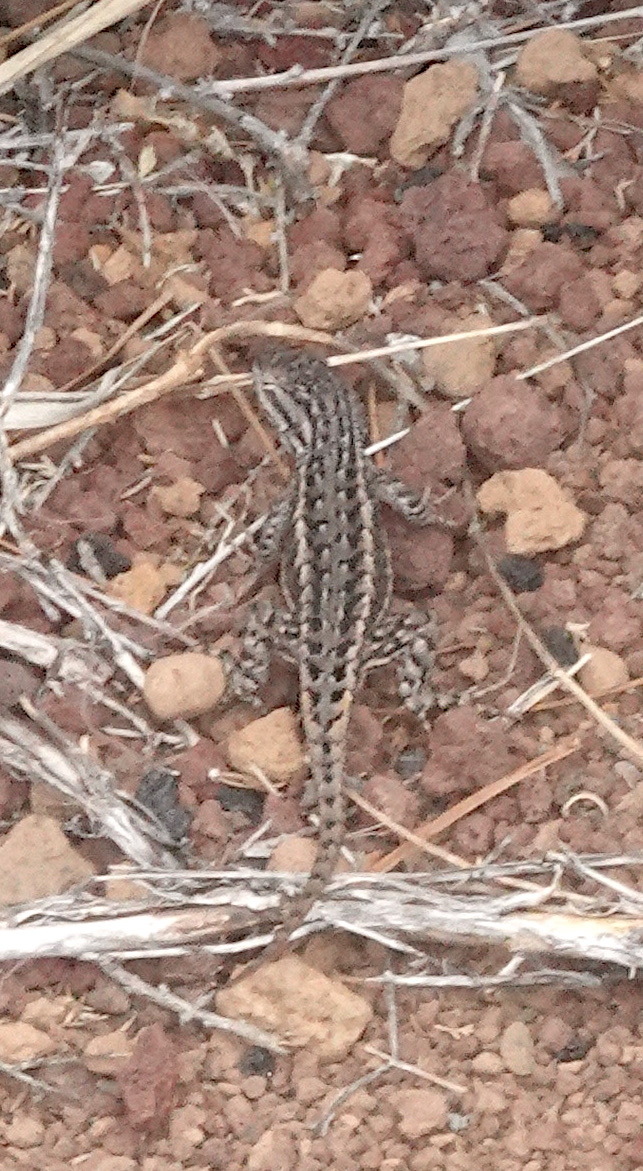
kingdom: Animalia
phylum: Chordata
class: Squamata
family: Phrynosomatidae
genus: Sceloporus
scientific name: Sceloporus tristichus
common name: Plateau fence lizard
